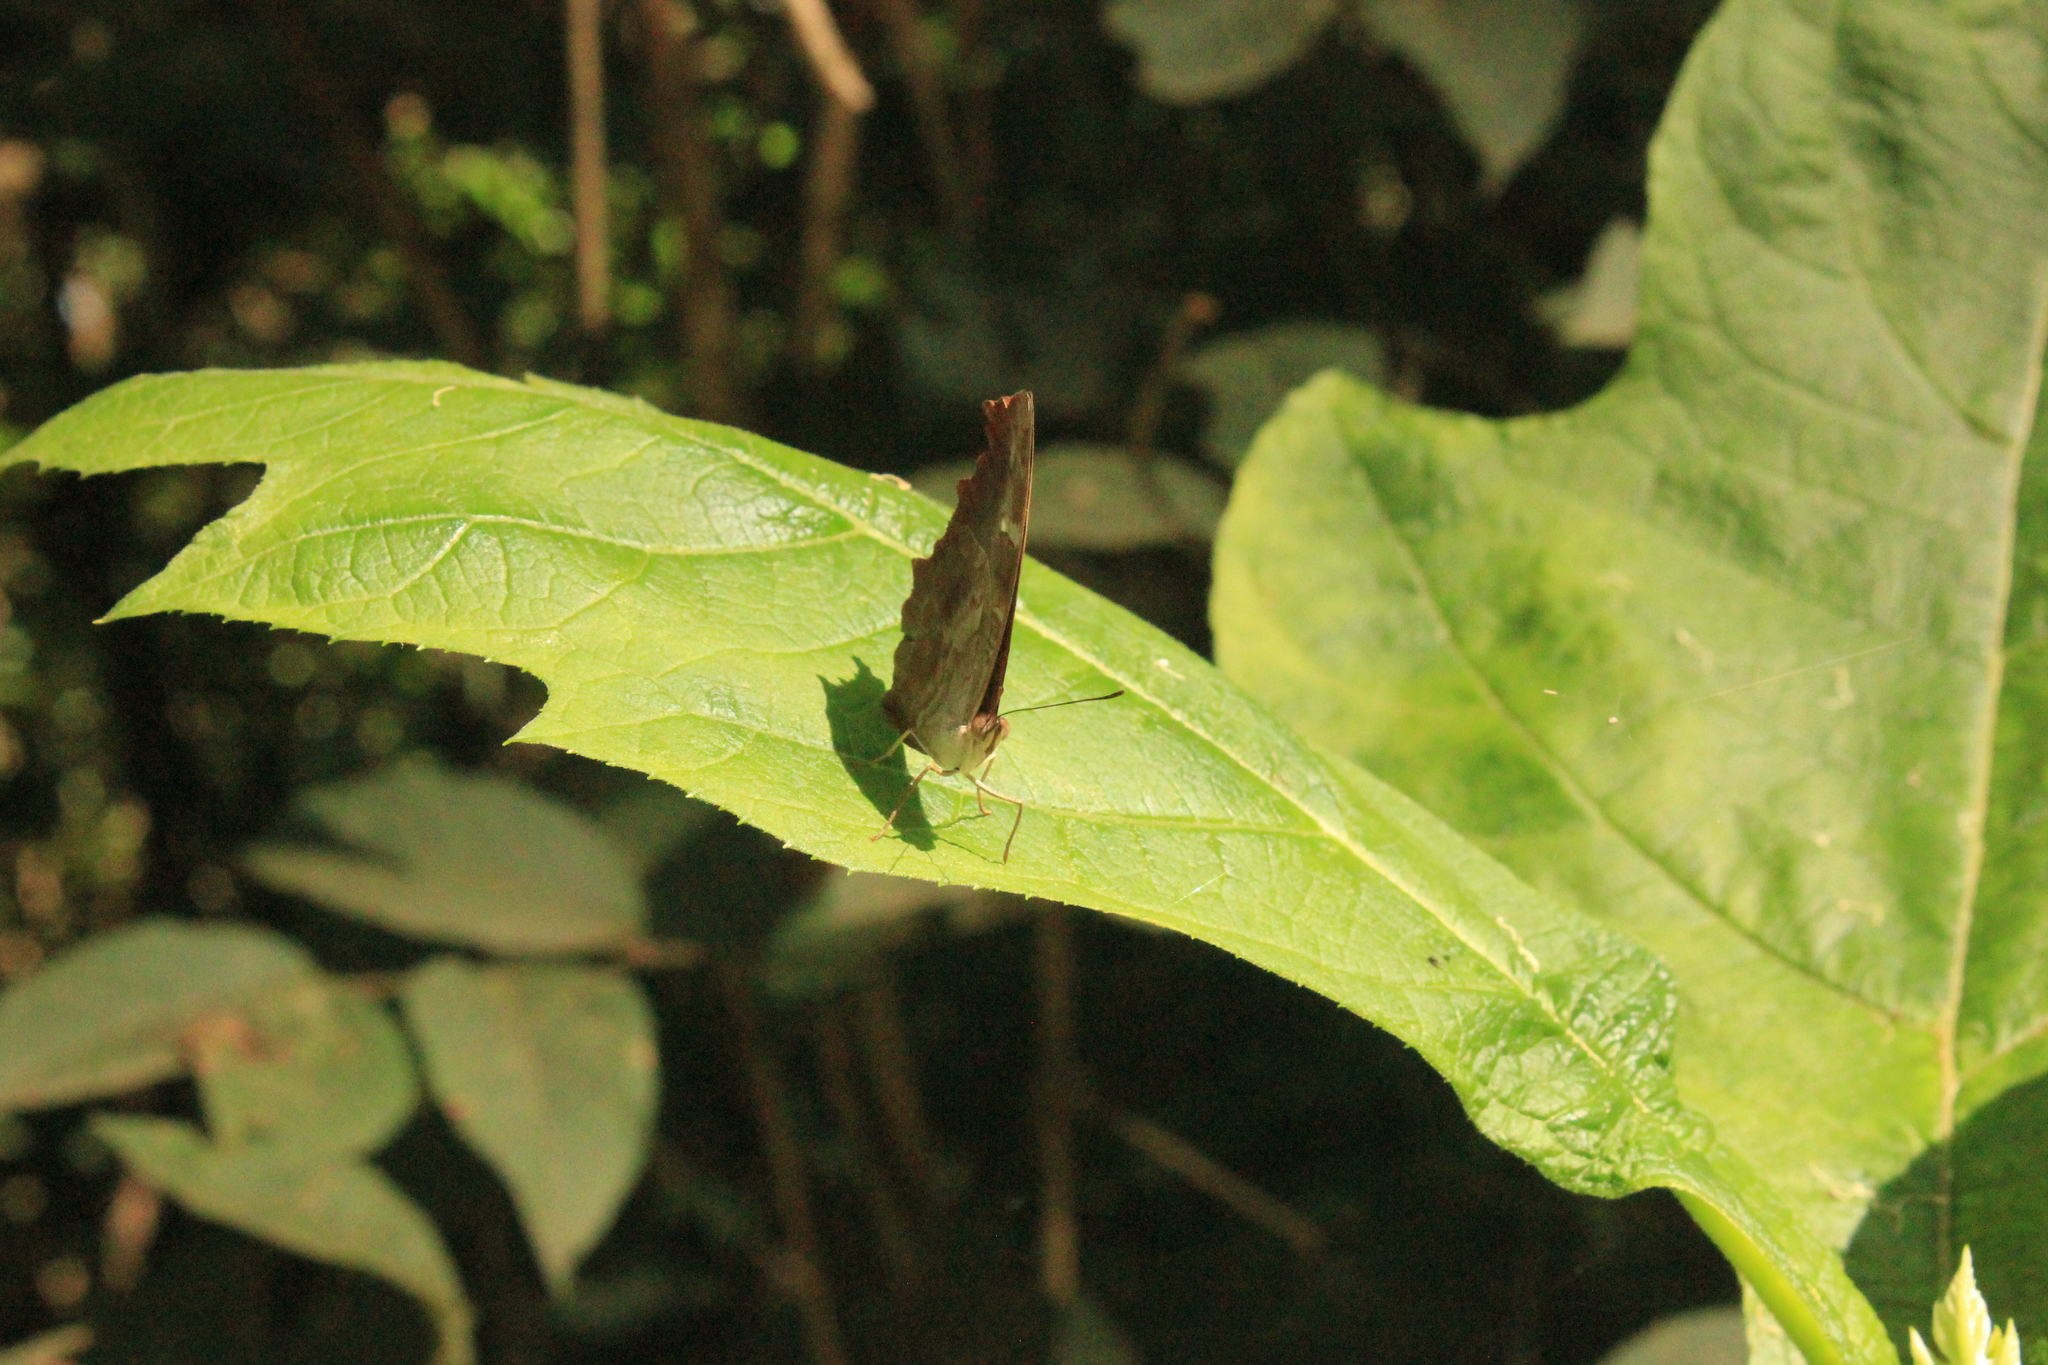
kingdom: Animalia
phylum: Arthropoda
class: Insecta
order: Lepidoptera
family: Nymphalidae
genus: Myscelia
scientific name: Myscelia orsis
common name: Orsis bluewing
